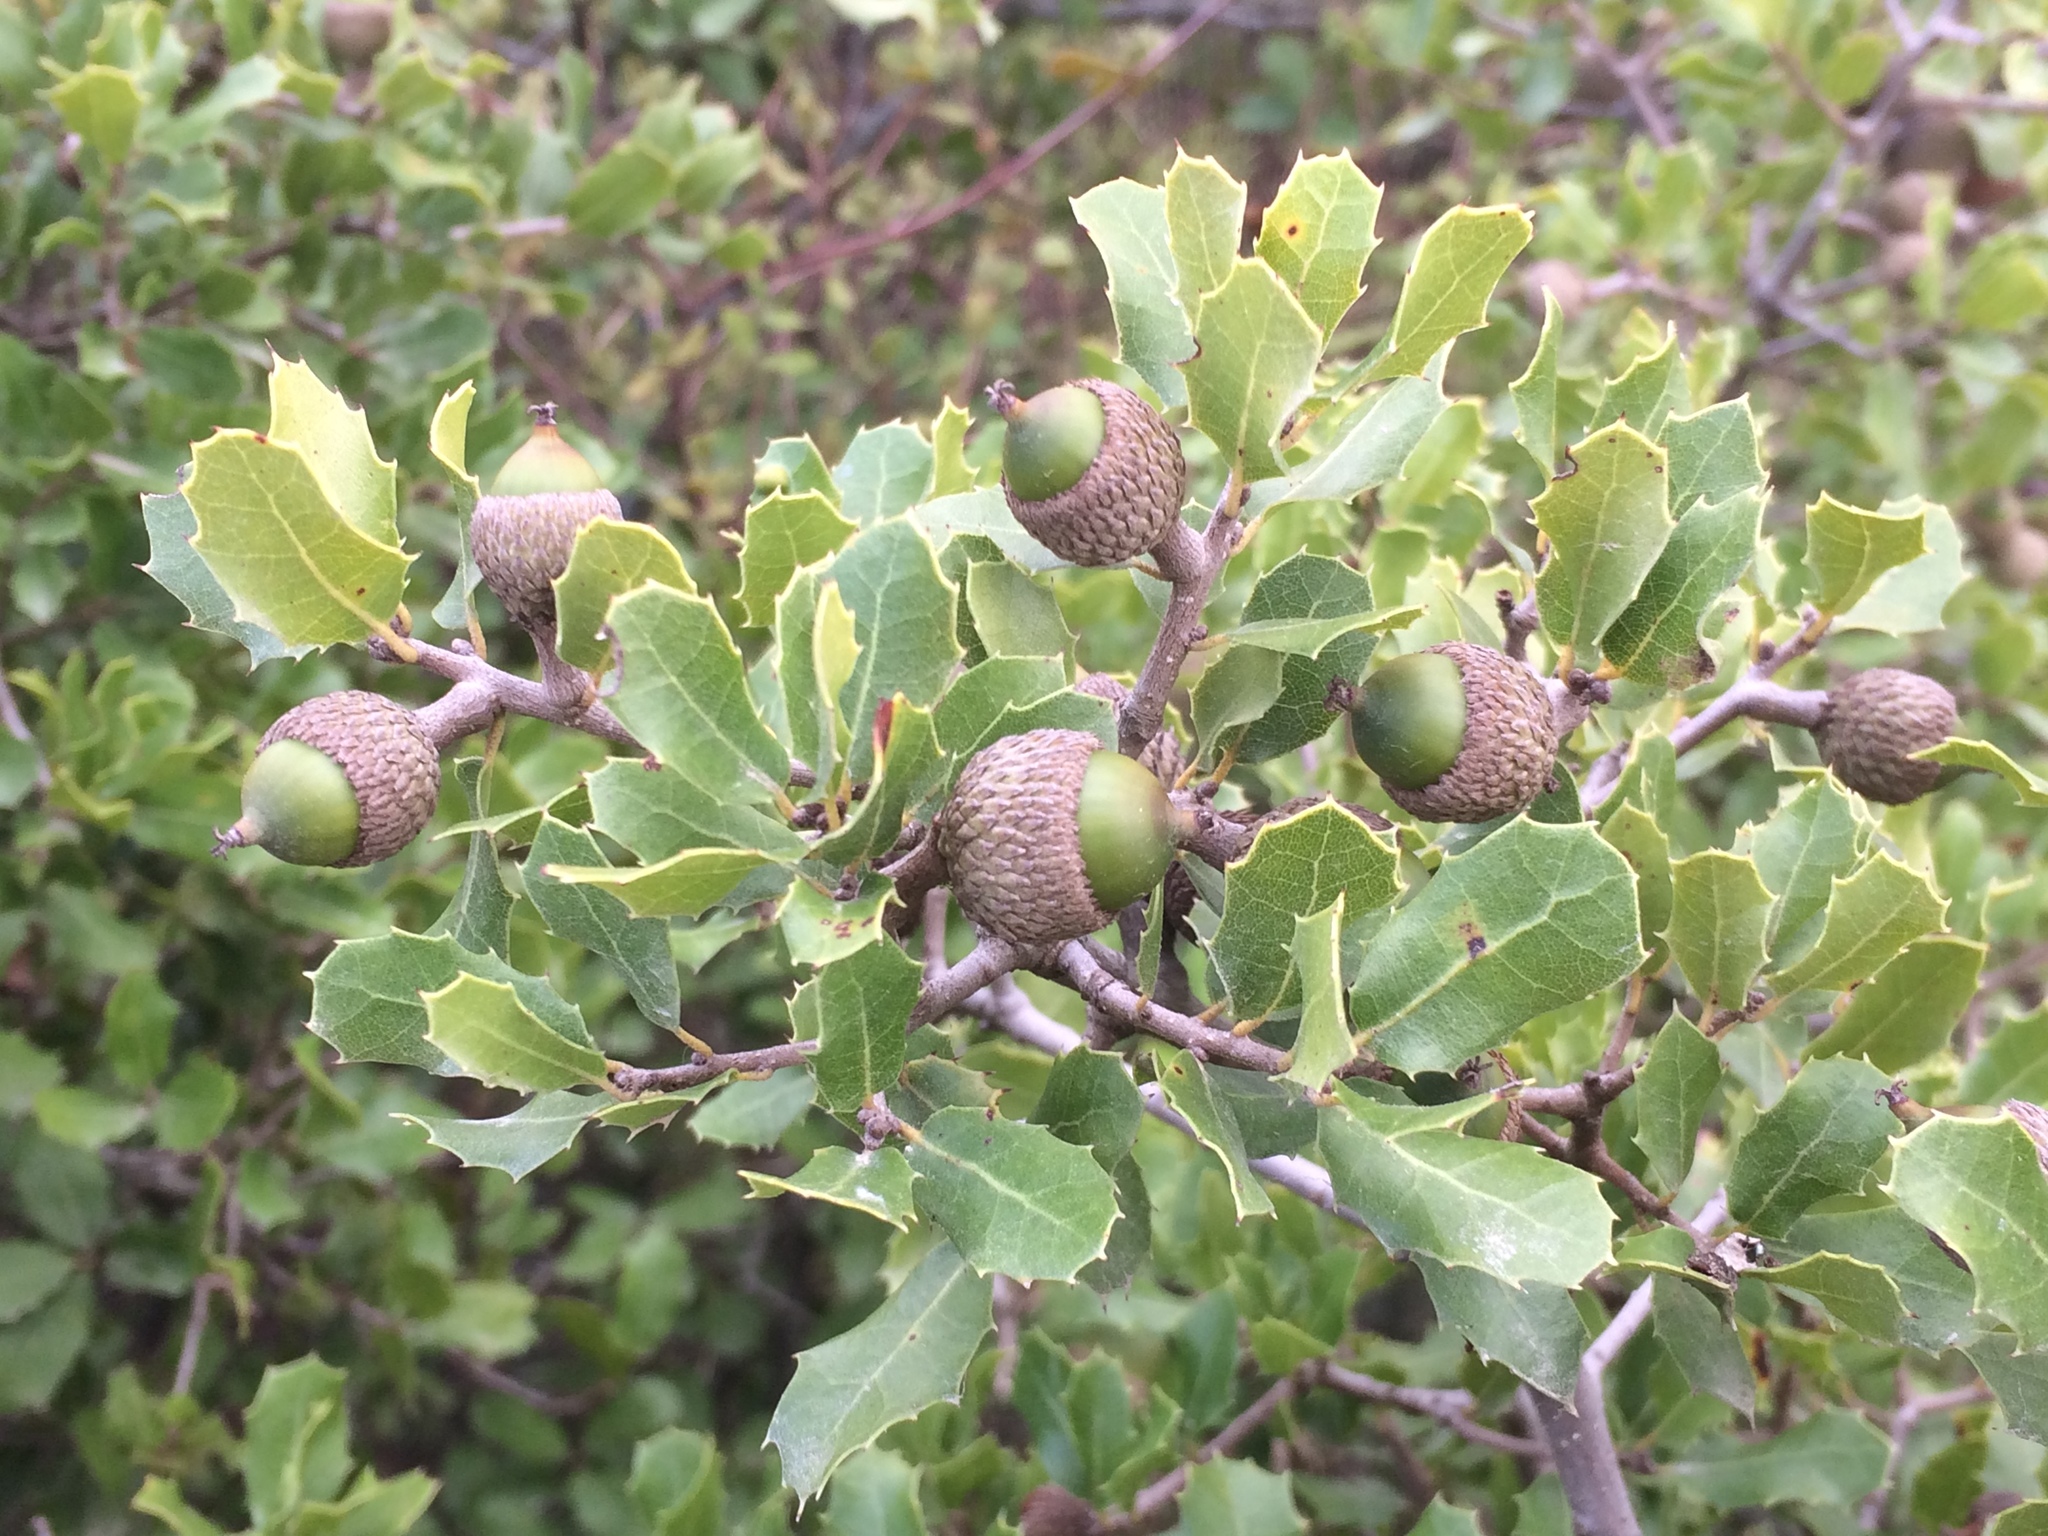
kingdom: Plantae
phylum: Tracheophyta
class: Magnoliopsida
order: Fagales
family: Fagaceae
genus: Quercus
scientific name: Quercus coccifera
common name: Kermes oak
